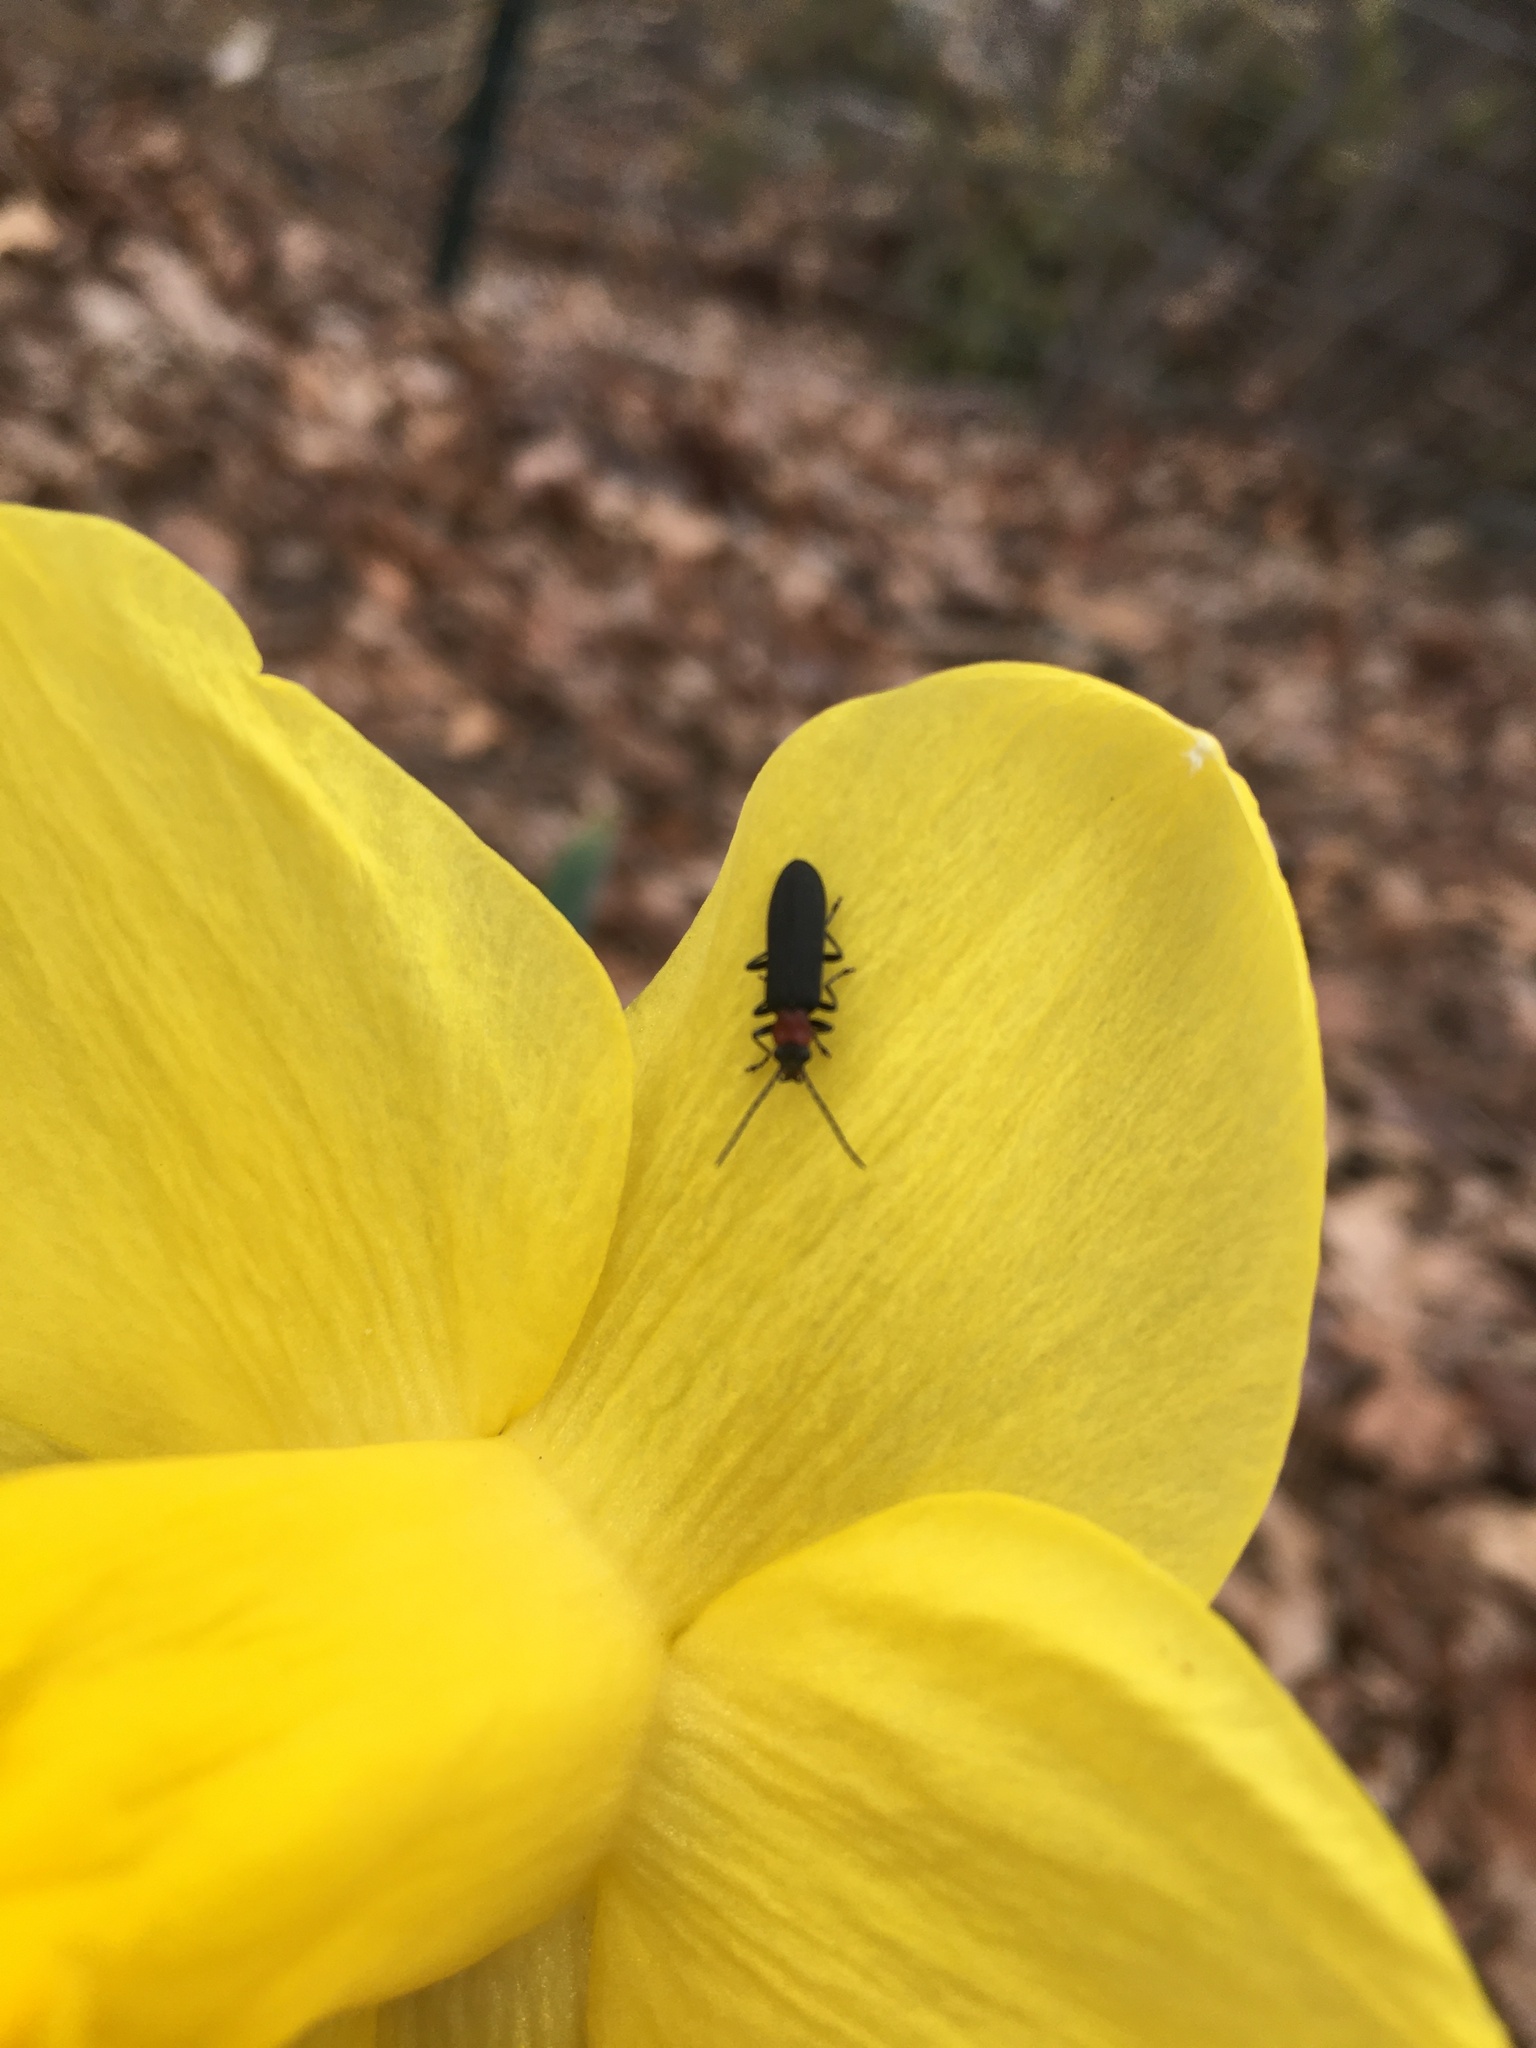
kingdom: Animalia
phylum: Arthropoda
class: Insecta
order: Coleoptera
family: Oedemeridae
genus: Ischnomera
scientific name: Ischnomera
